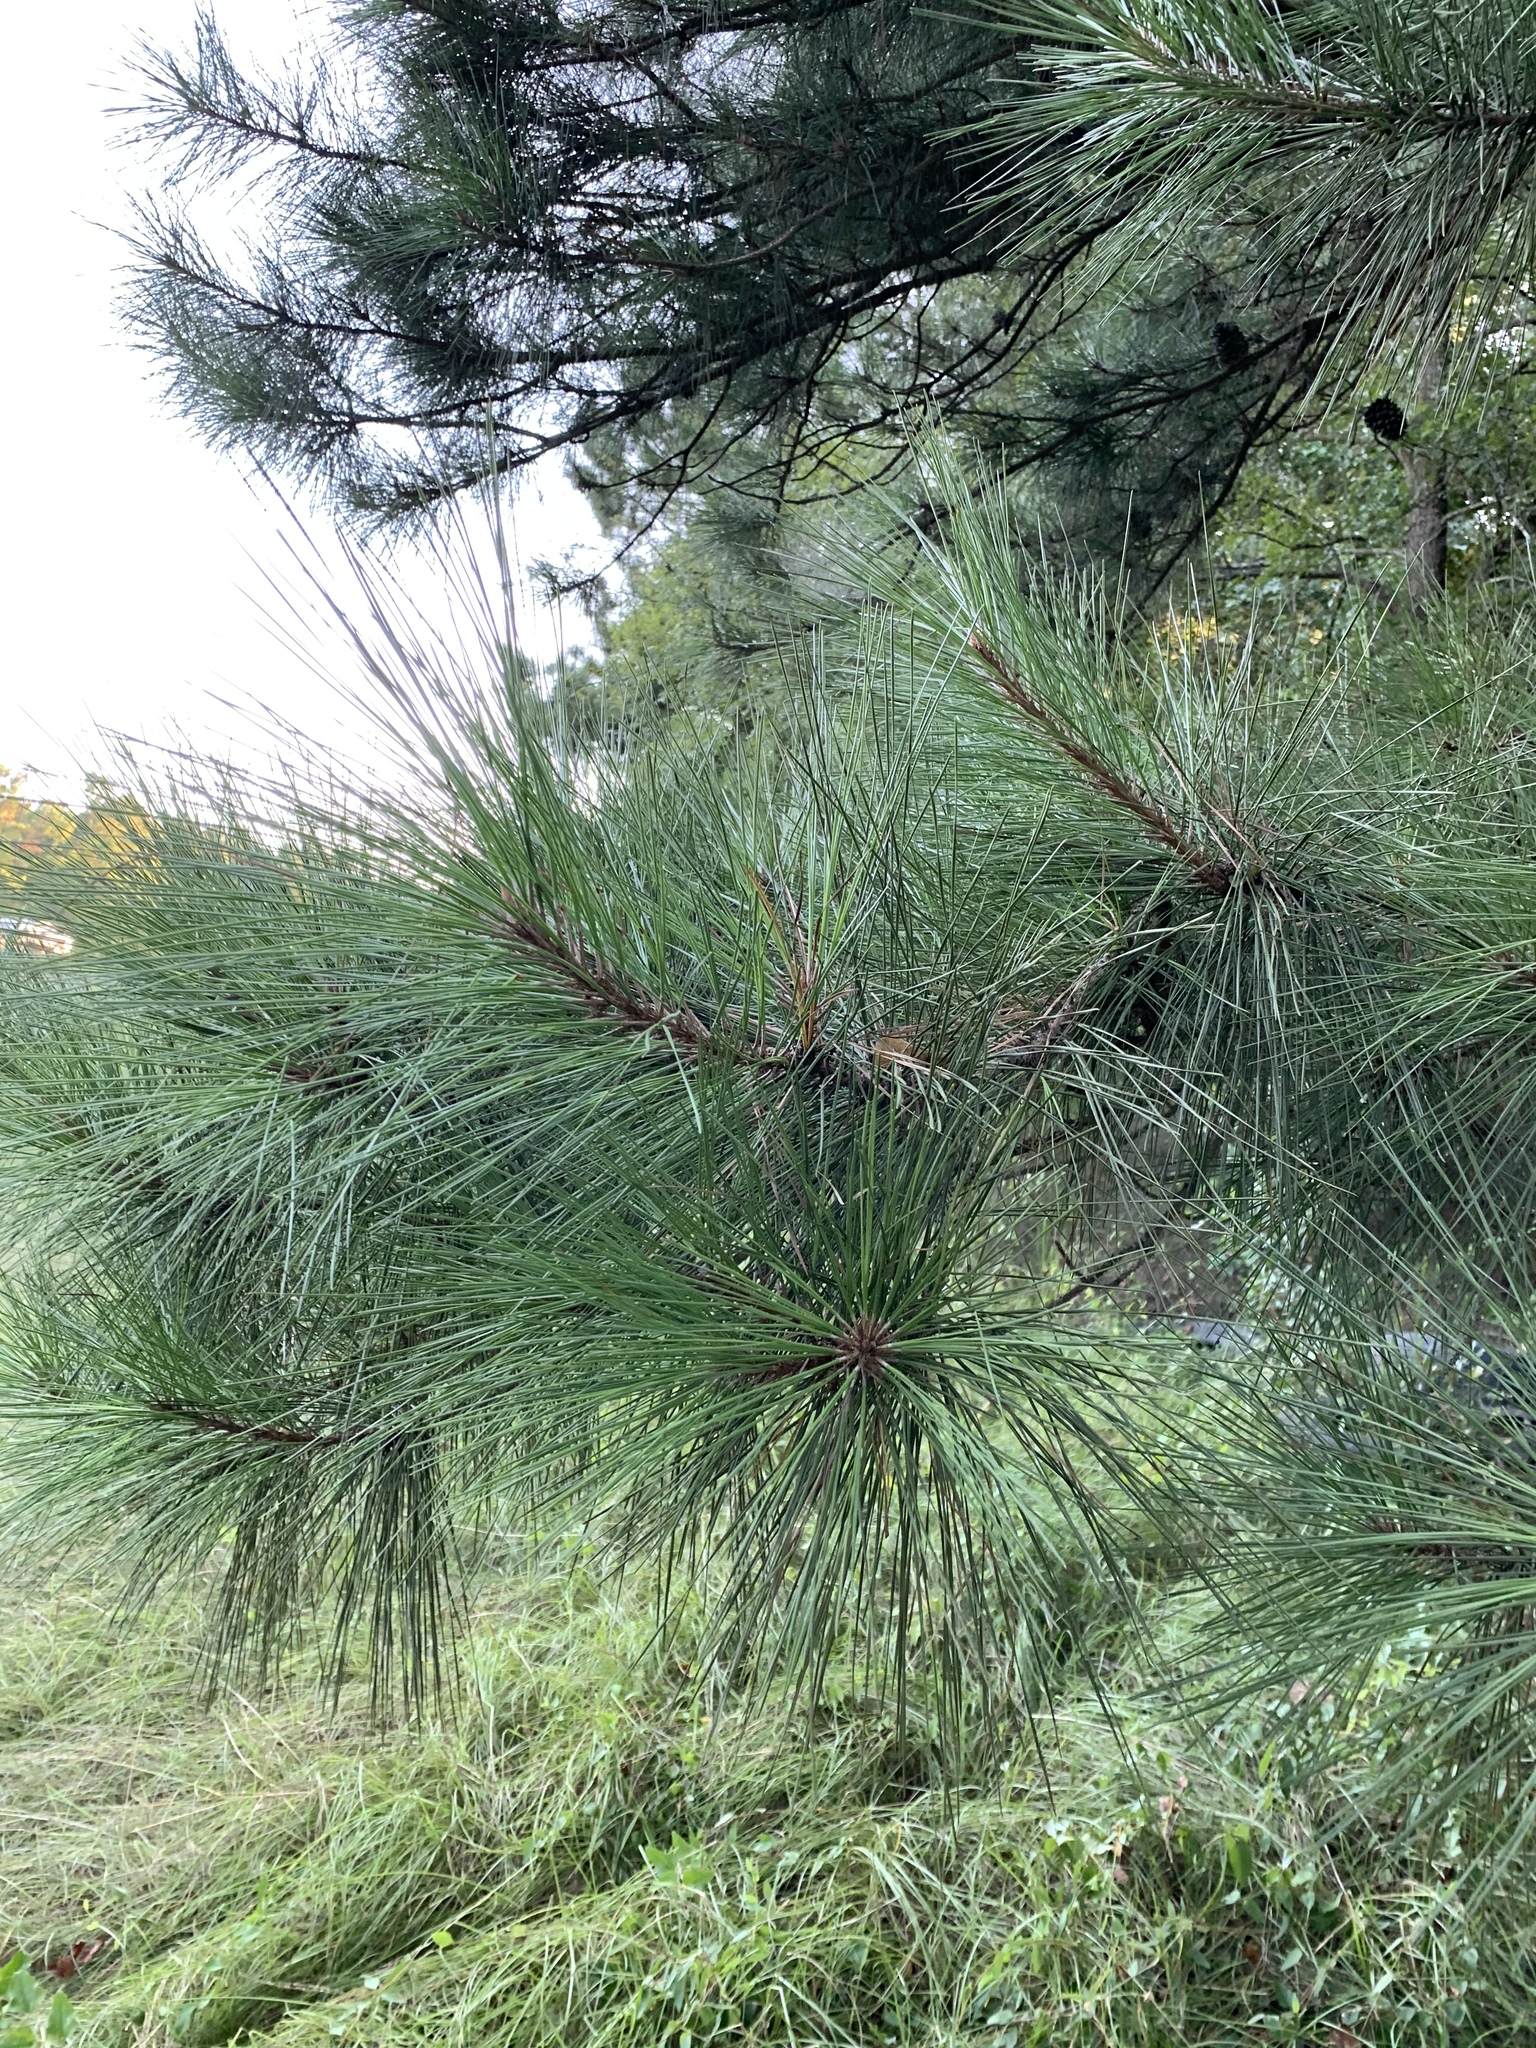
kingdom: Plantae
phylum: Tracheophyta
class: Pinopsida
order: Pinales
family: Pinaceae
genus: Pinus
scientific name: Pinus taeda
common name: Loblolly pine
